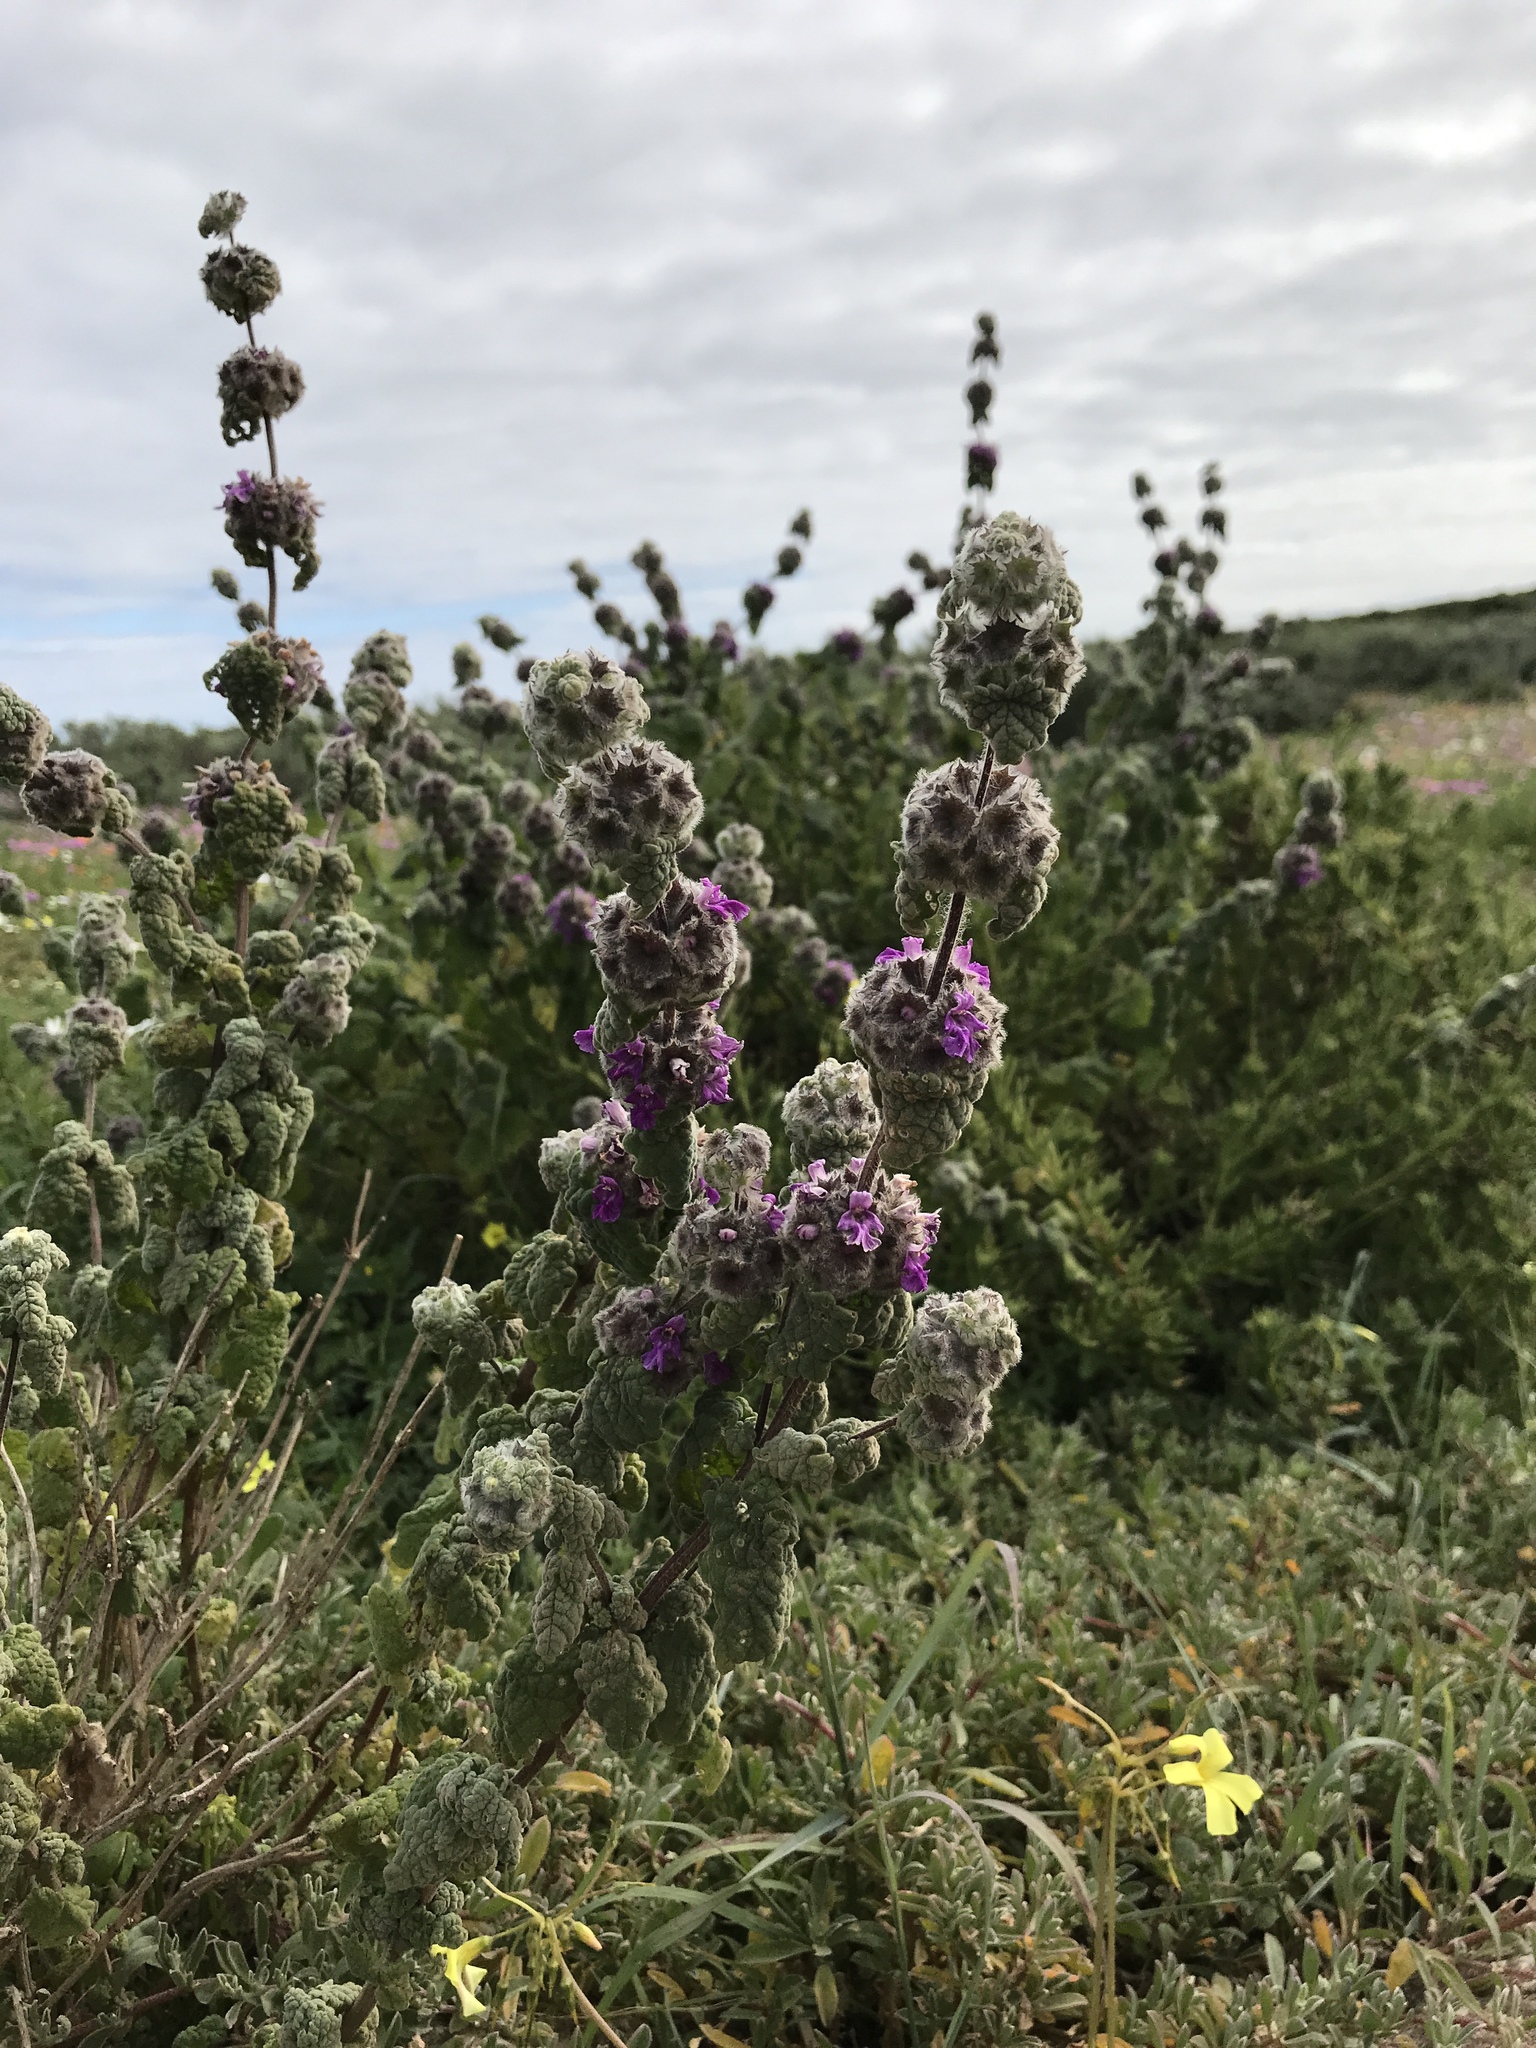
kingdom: Plantae
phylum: Tracheophyta
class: Magnoliopsida
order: Lamiales
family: Lamiaceae
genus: Pseudodictamnus
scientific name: Pseudodictamnus africanus
